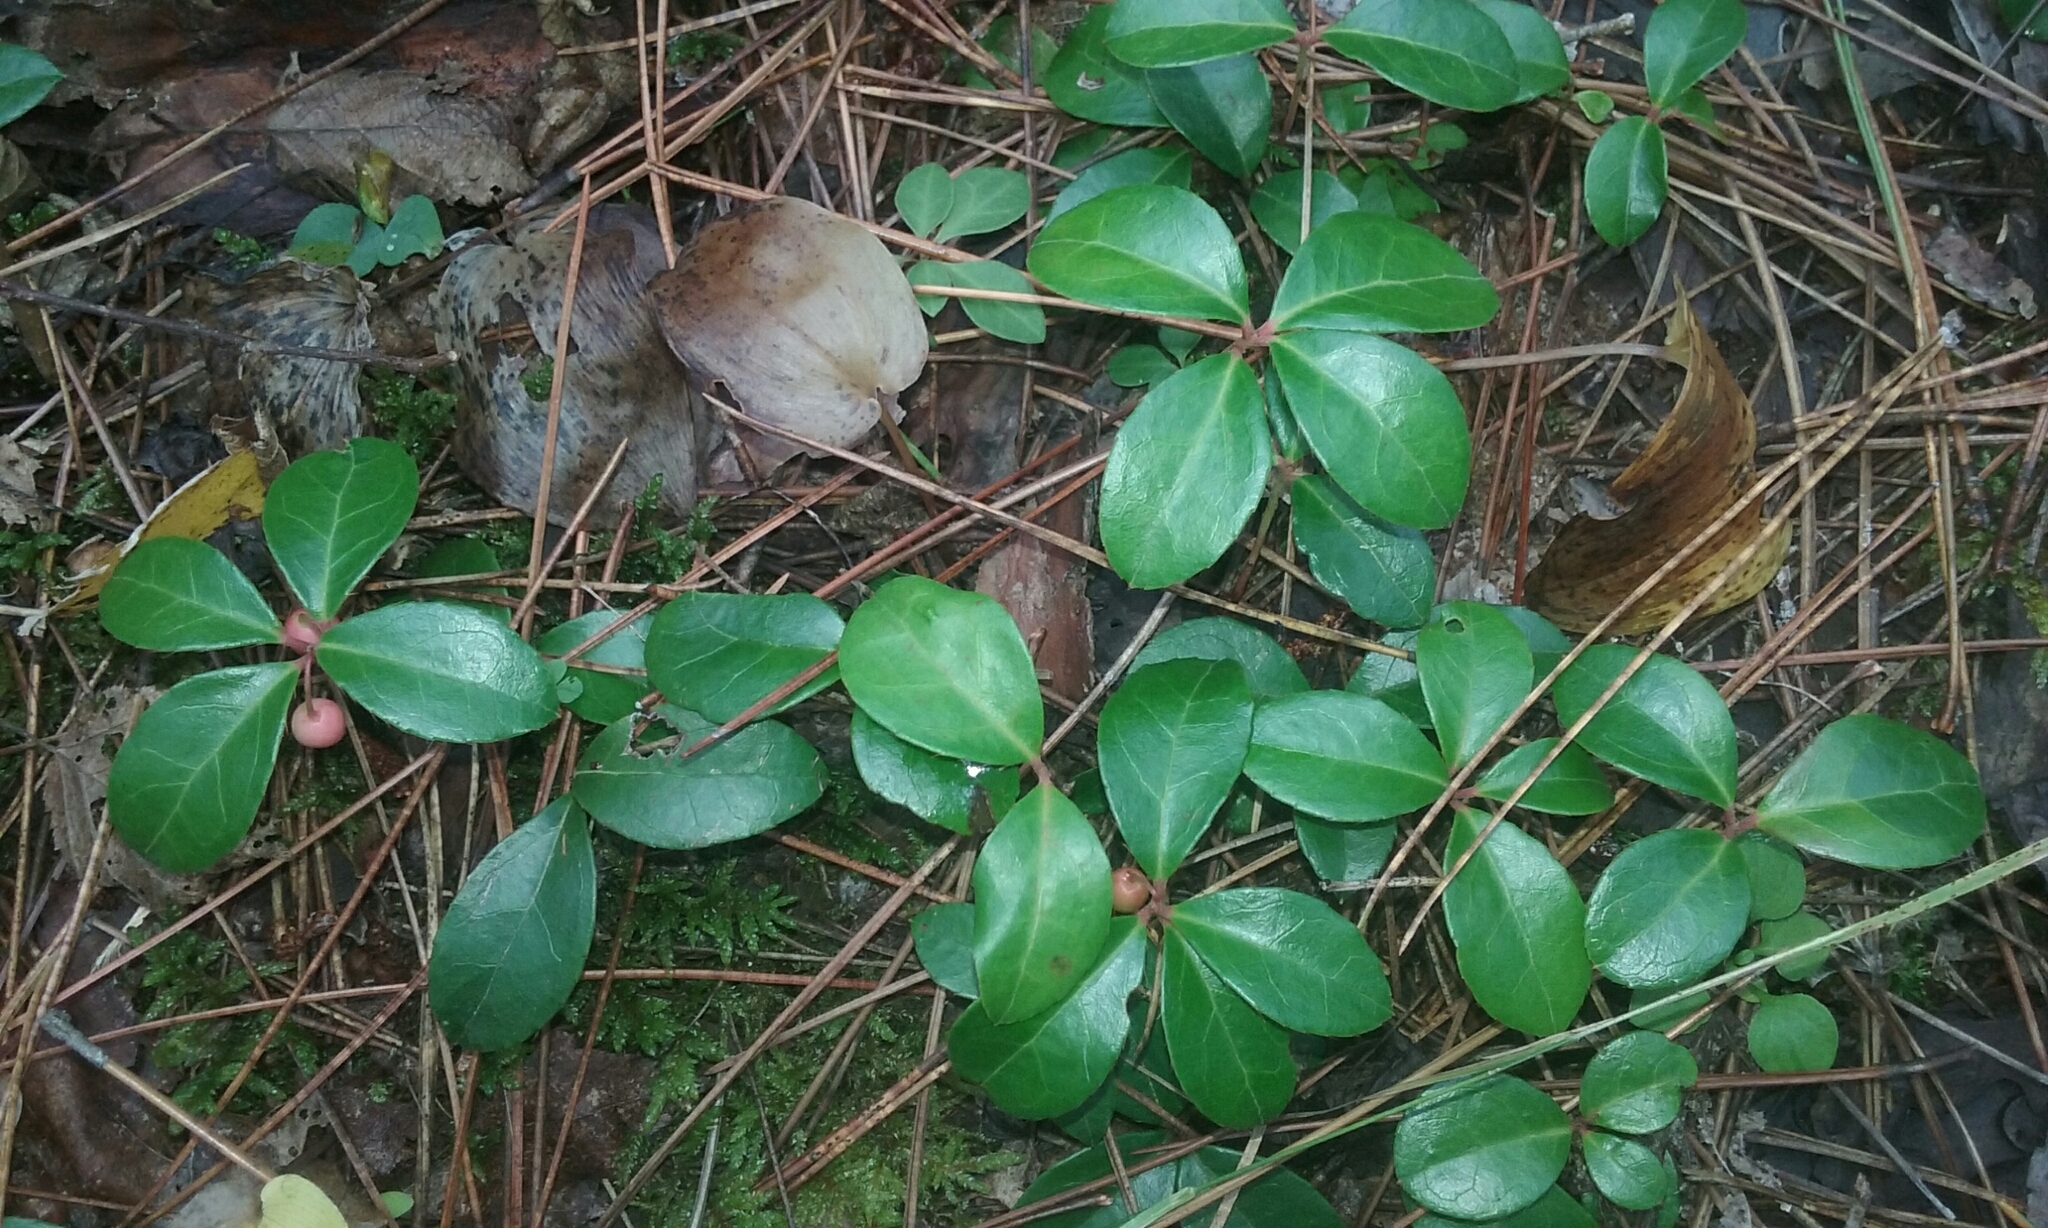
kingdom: Plantae
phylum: Tracheophyta
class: Magnoliopsida
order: Ericales
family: Ericaceae
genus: Gaultheria
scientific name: Gaultheria procumbens
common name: Checkerberry
